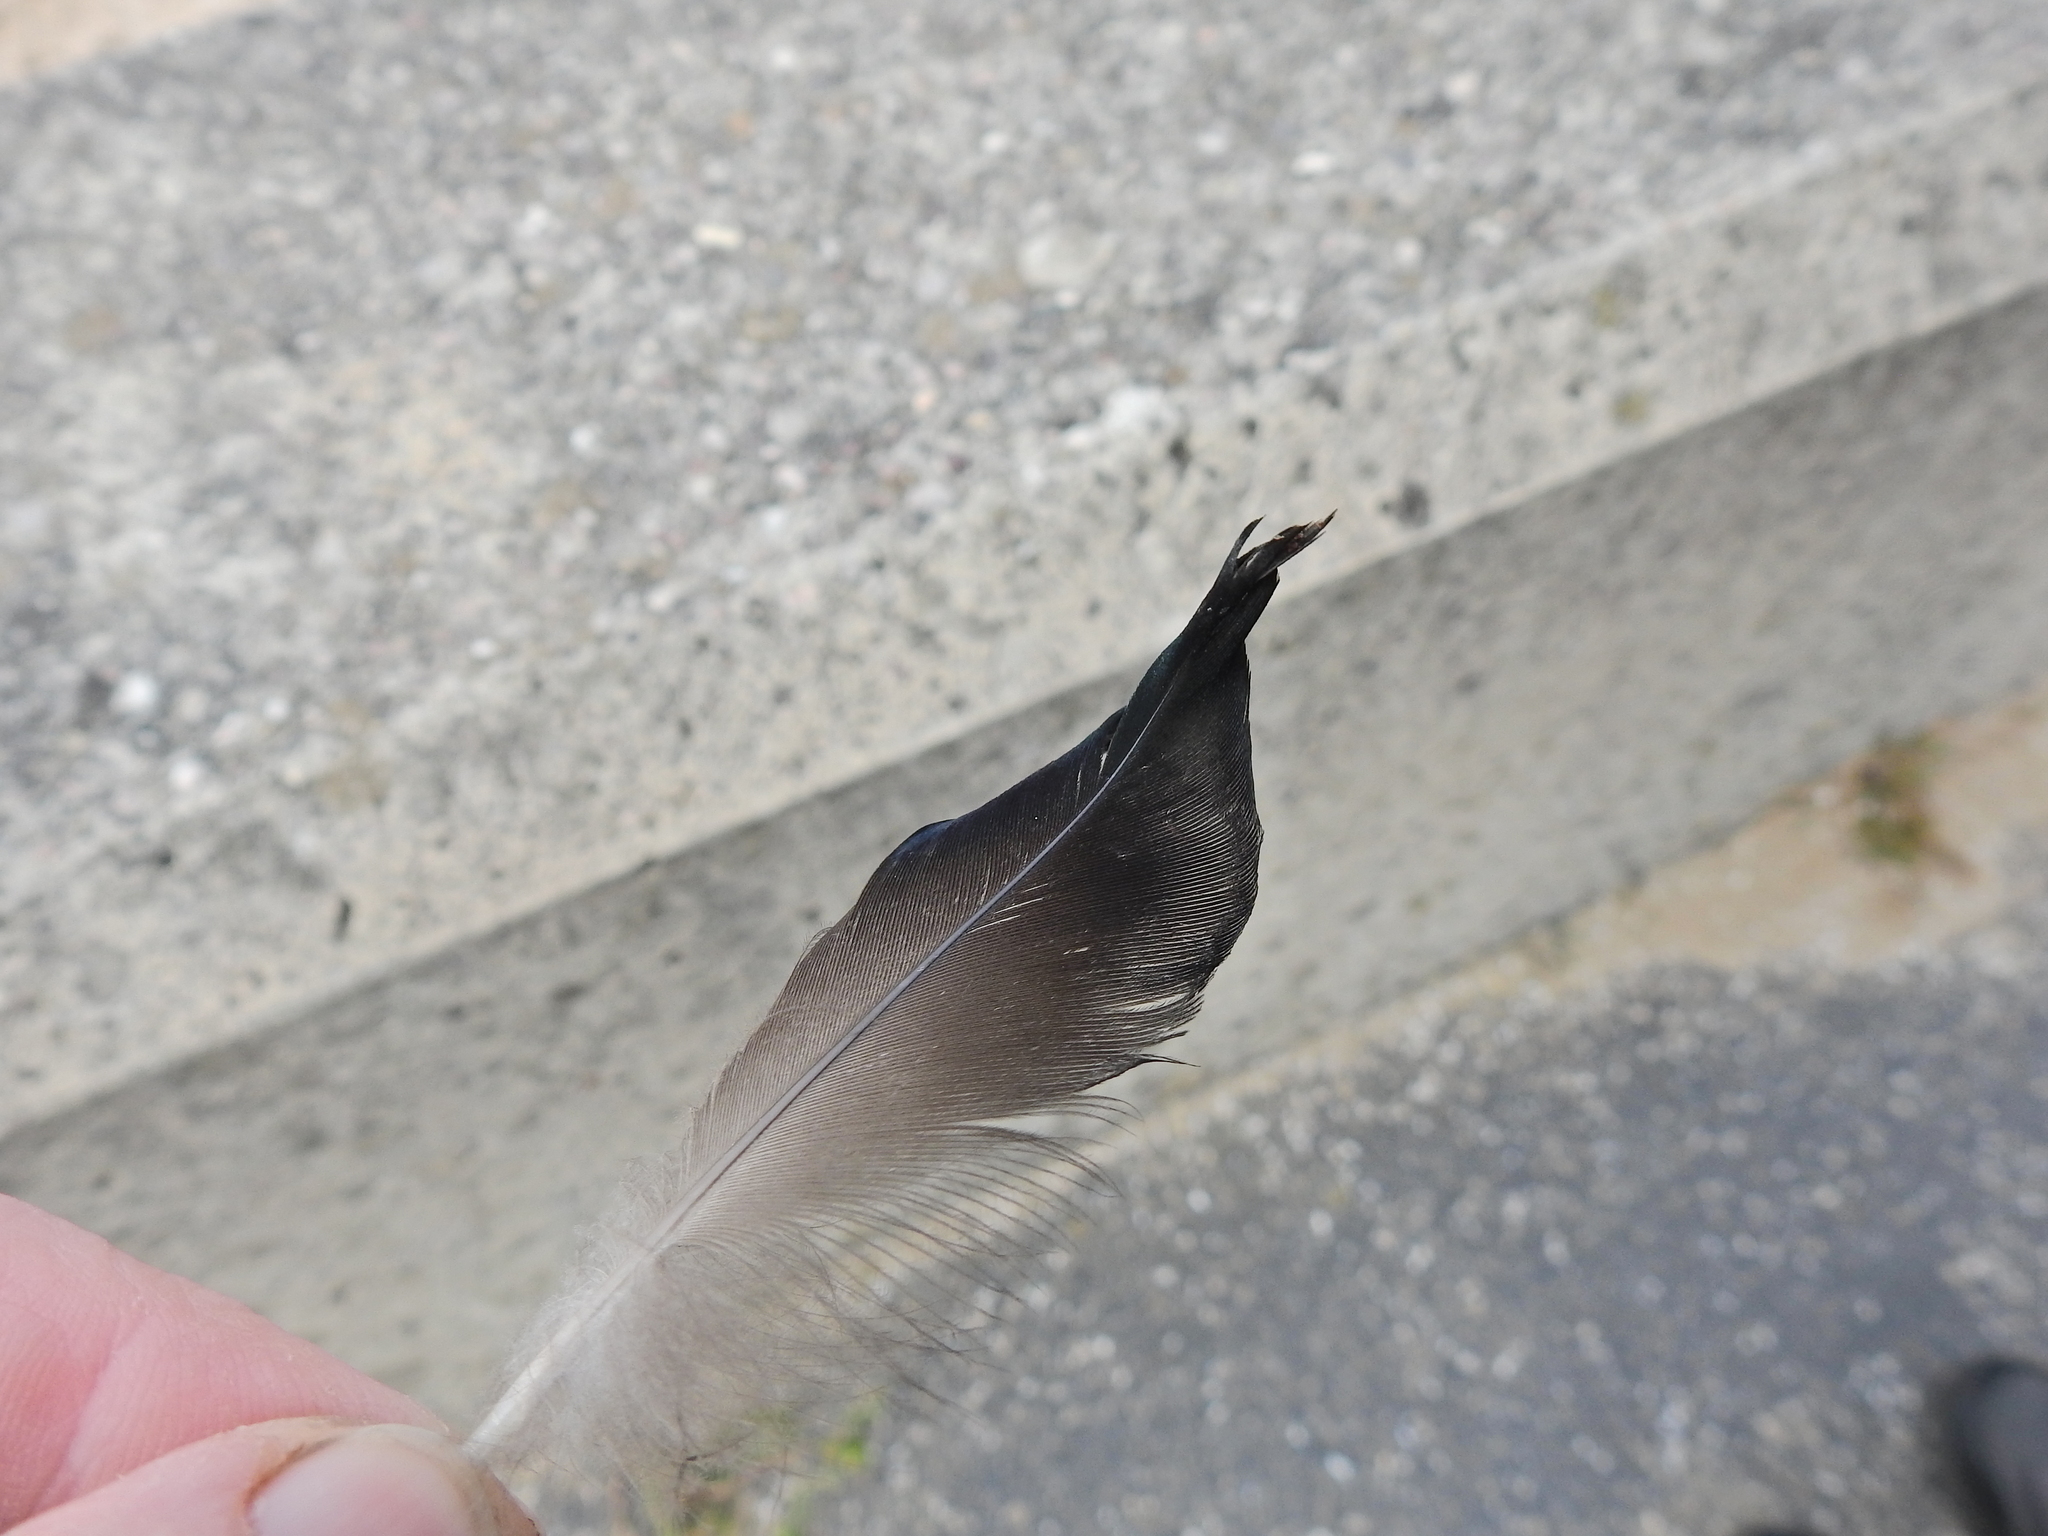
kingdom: Animalia
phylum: Chordata
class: Aves
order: Anseriformes
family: Anatidae
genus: Anas
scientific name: Anas platyrhynchos
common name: Mallard
